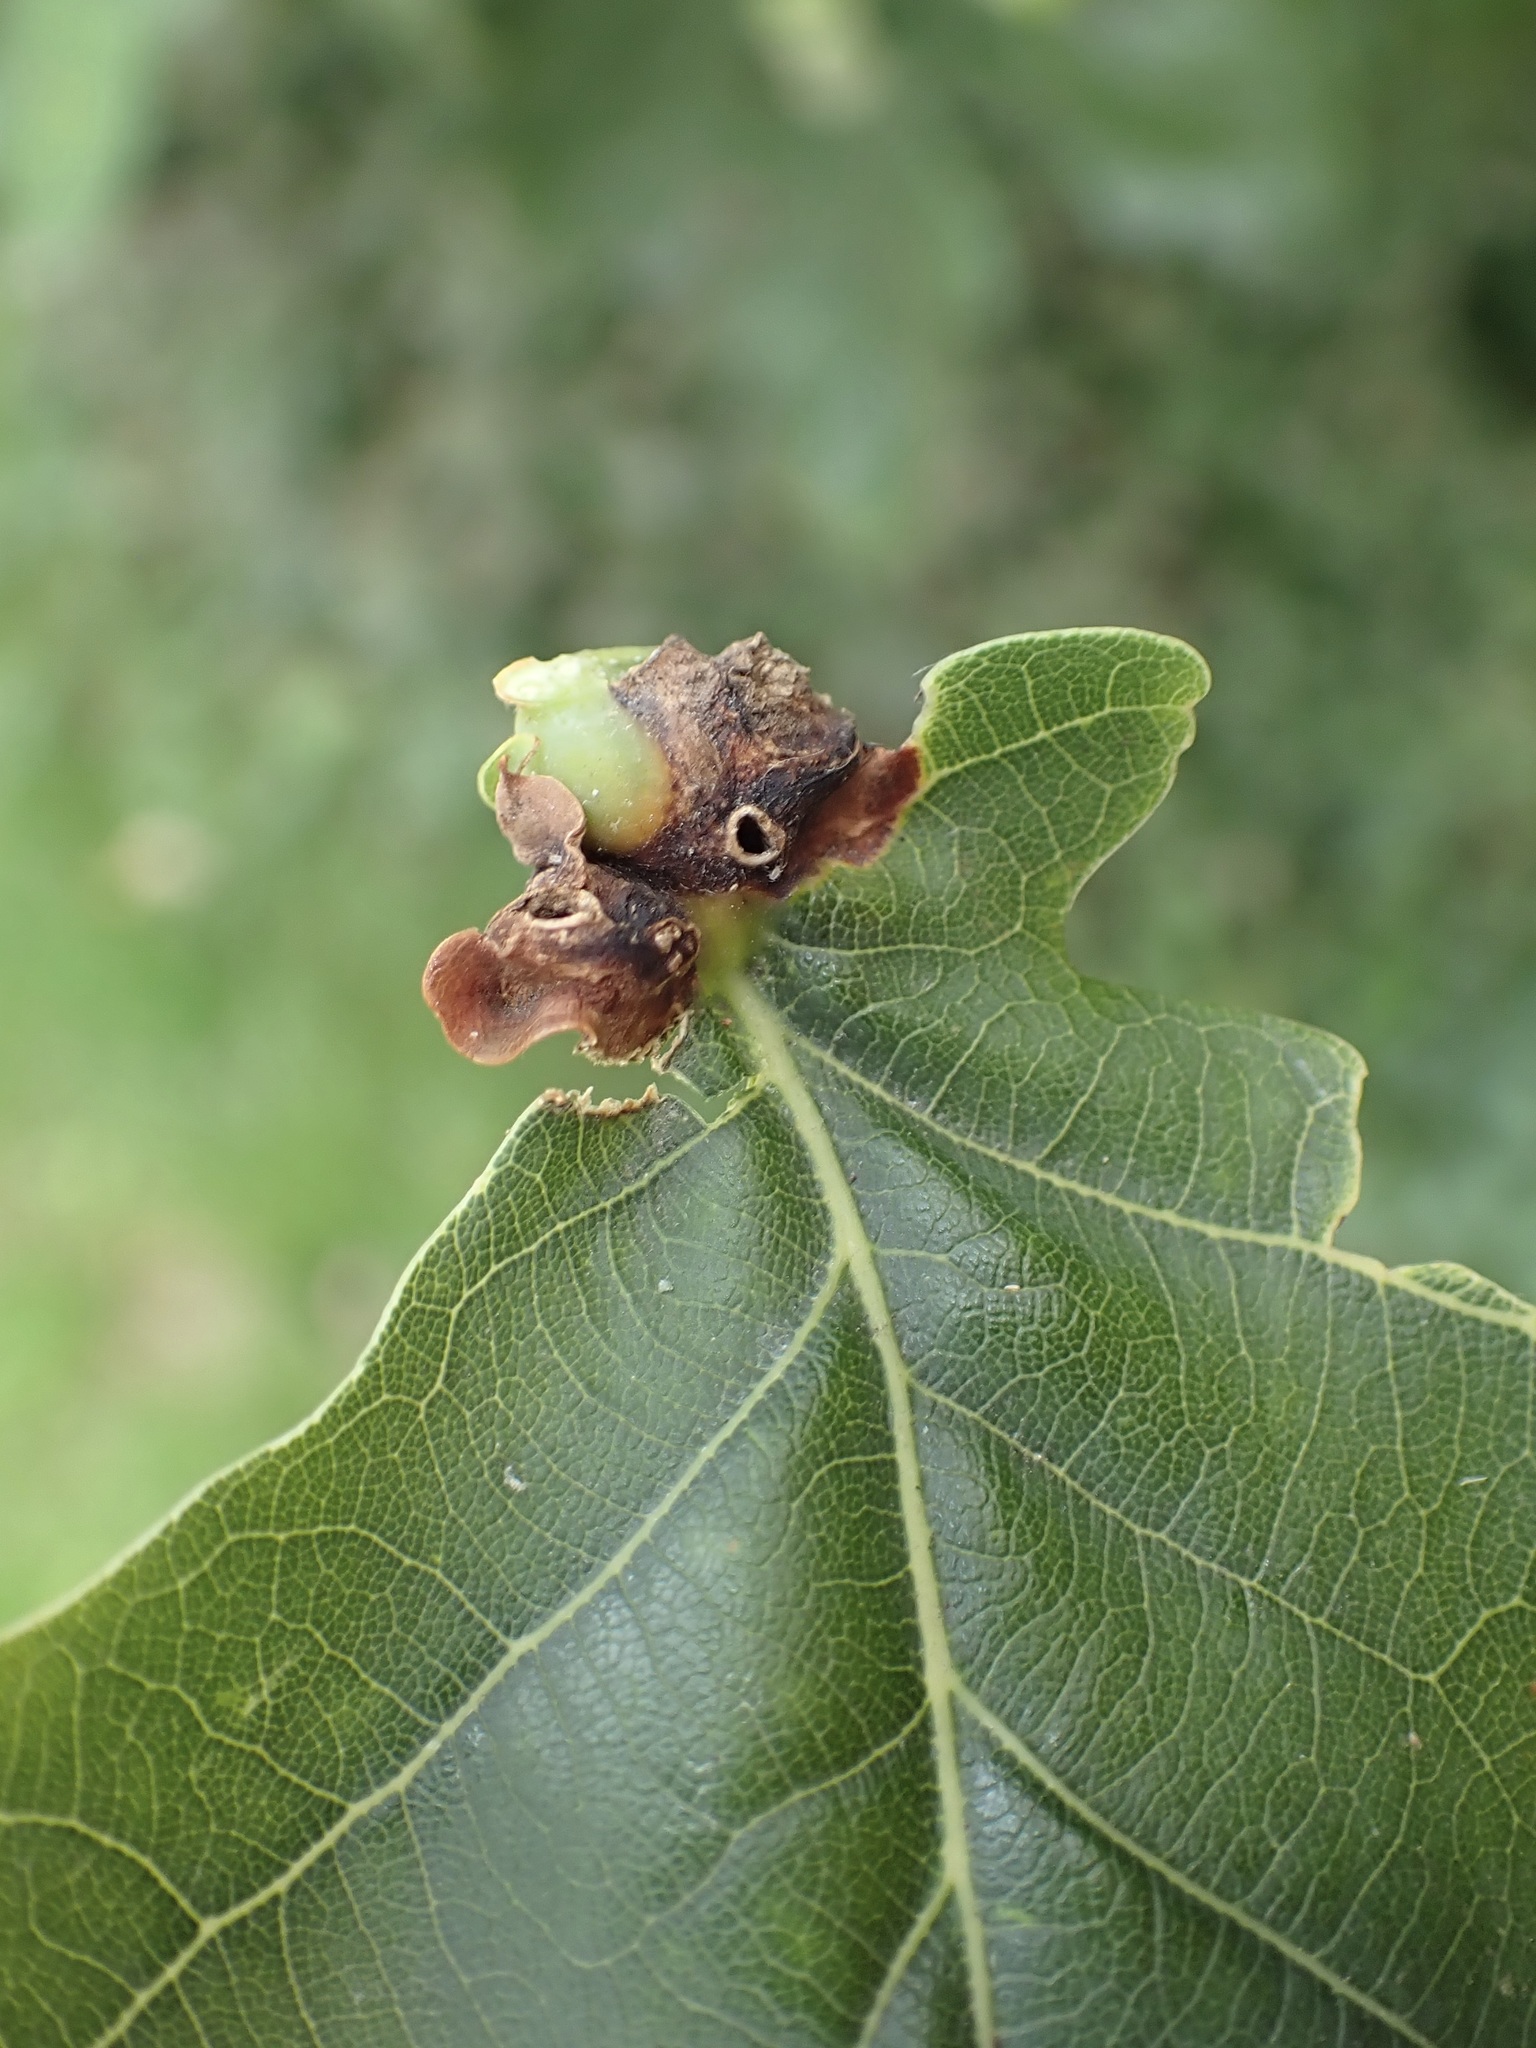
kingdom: Animalia
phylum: Arthropoda
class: Insecta
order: Hymenoptera
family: Cynipidae
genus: Andricus
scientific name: Andricus curvator
